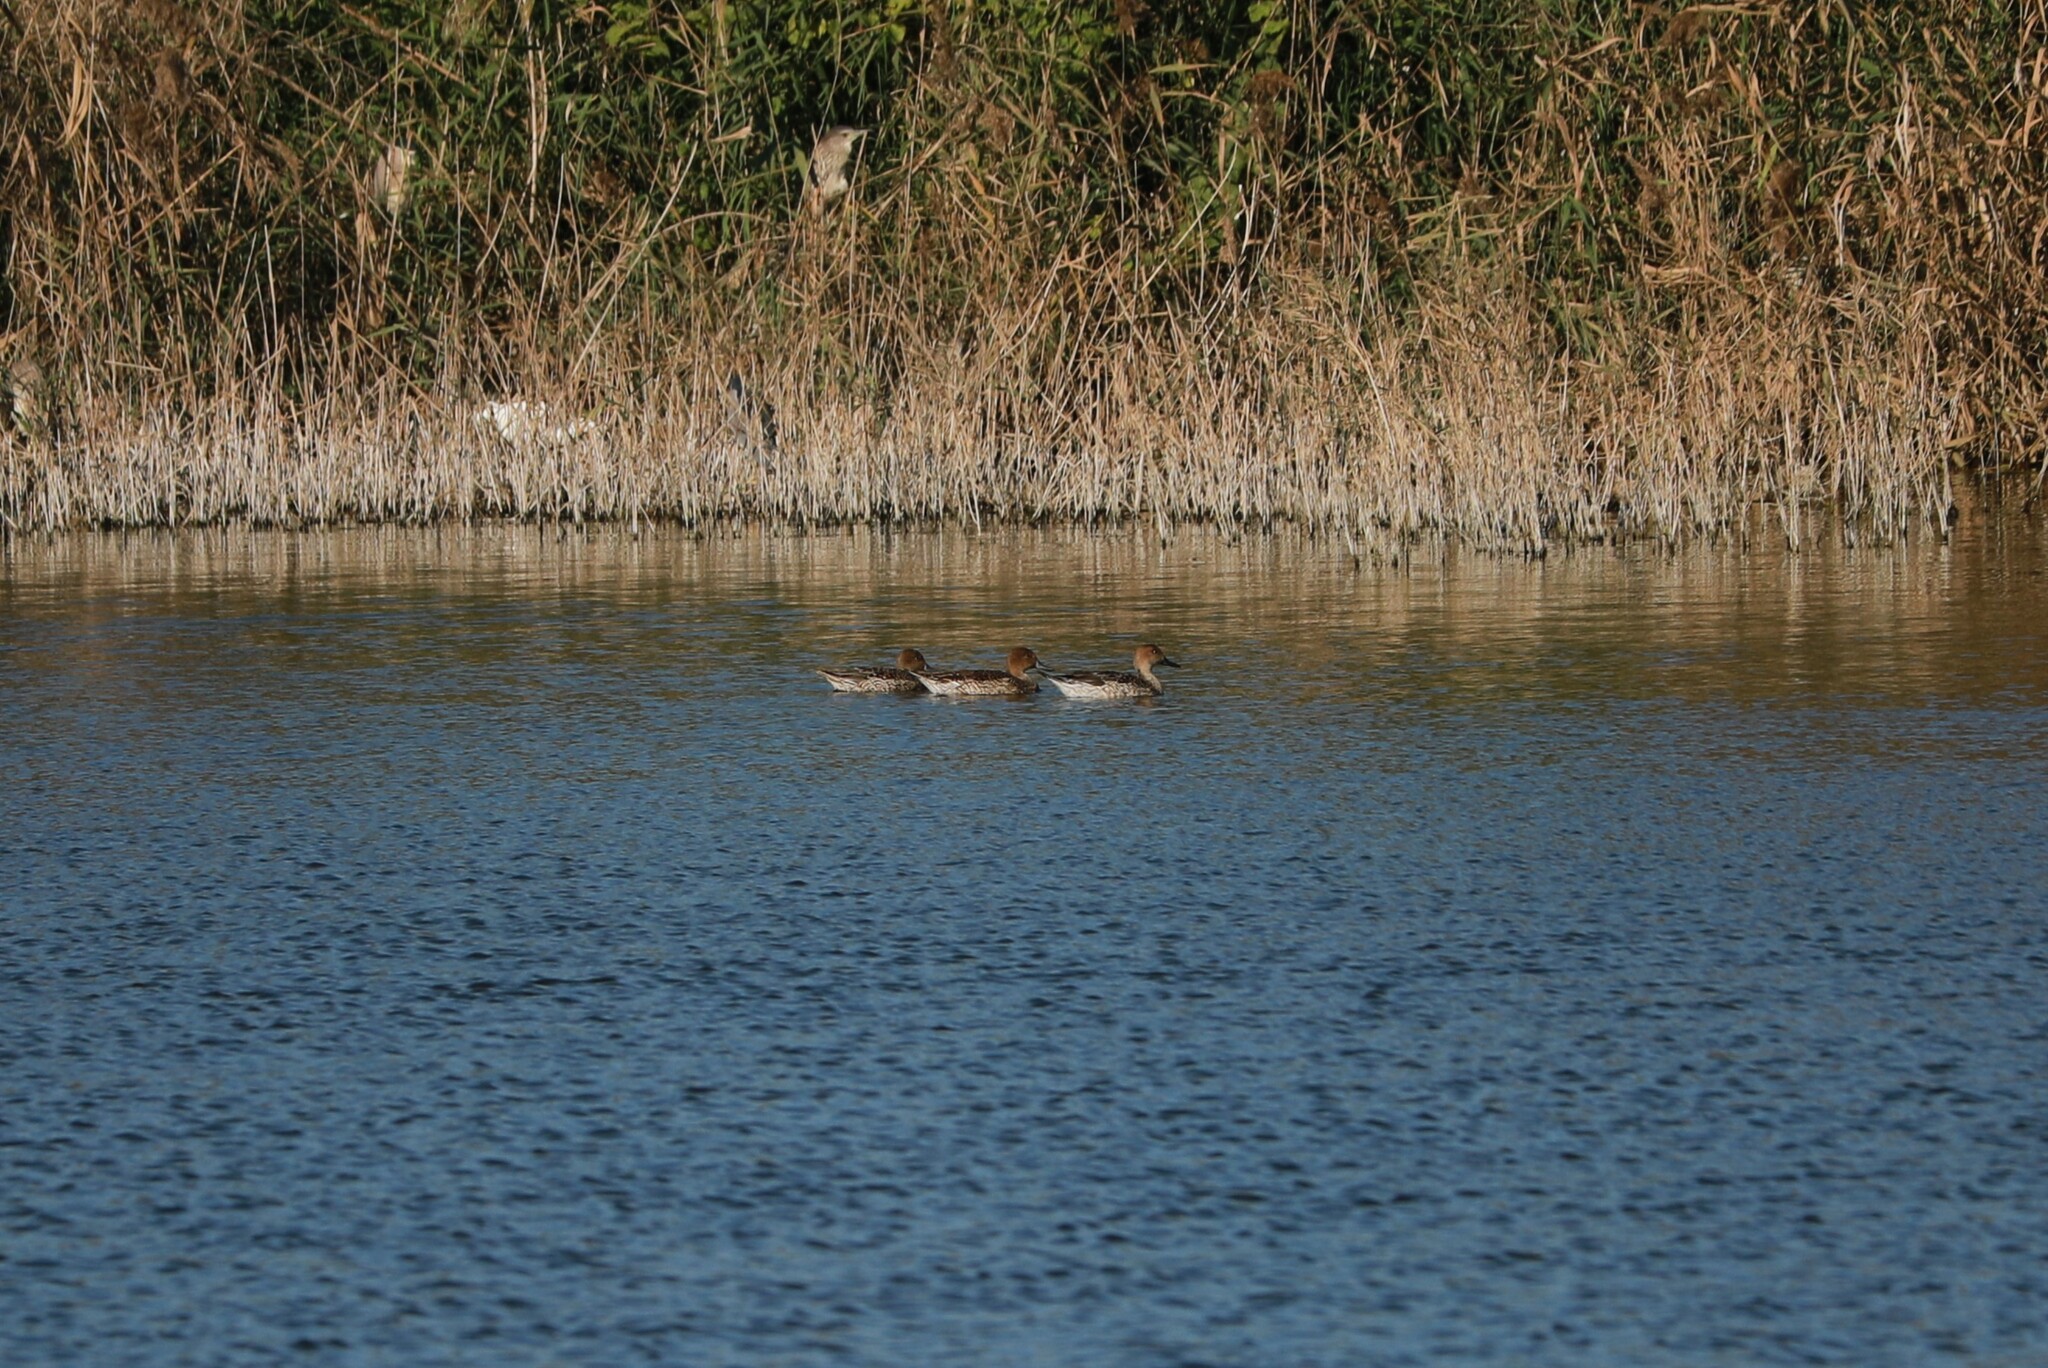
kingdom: Animalia
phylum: Chordata
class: Aves
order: Anseriformes
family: Anatidae
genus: Anas
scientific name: Anas acuta
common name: Northern pintail
